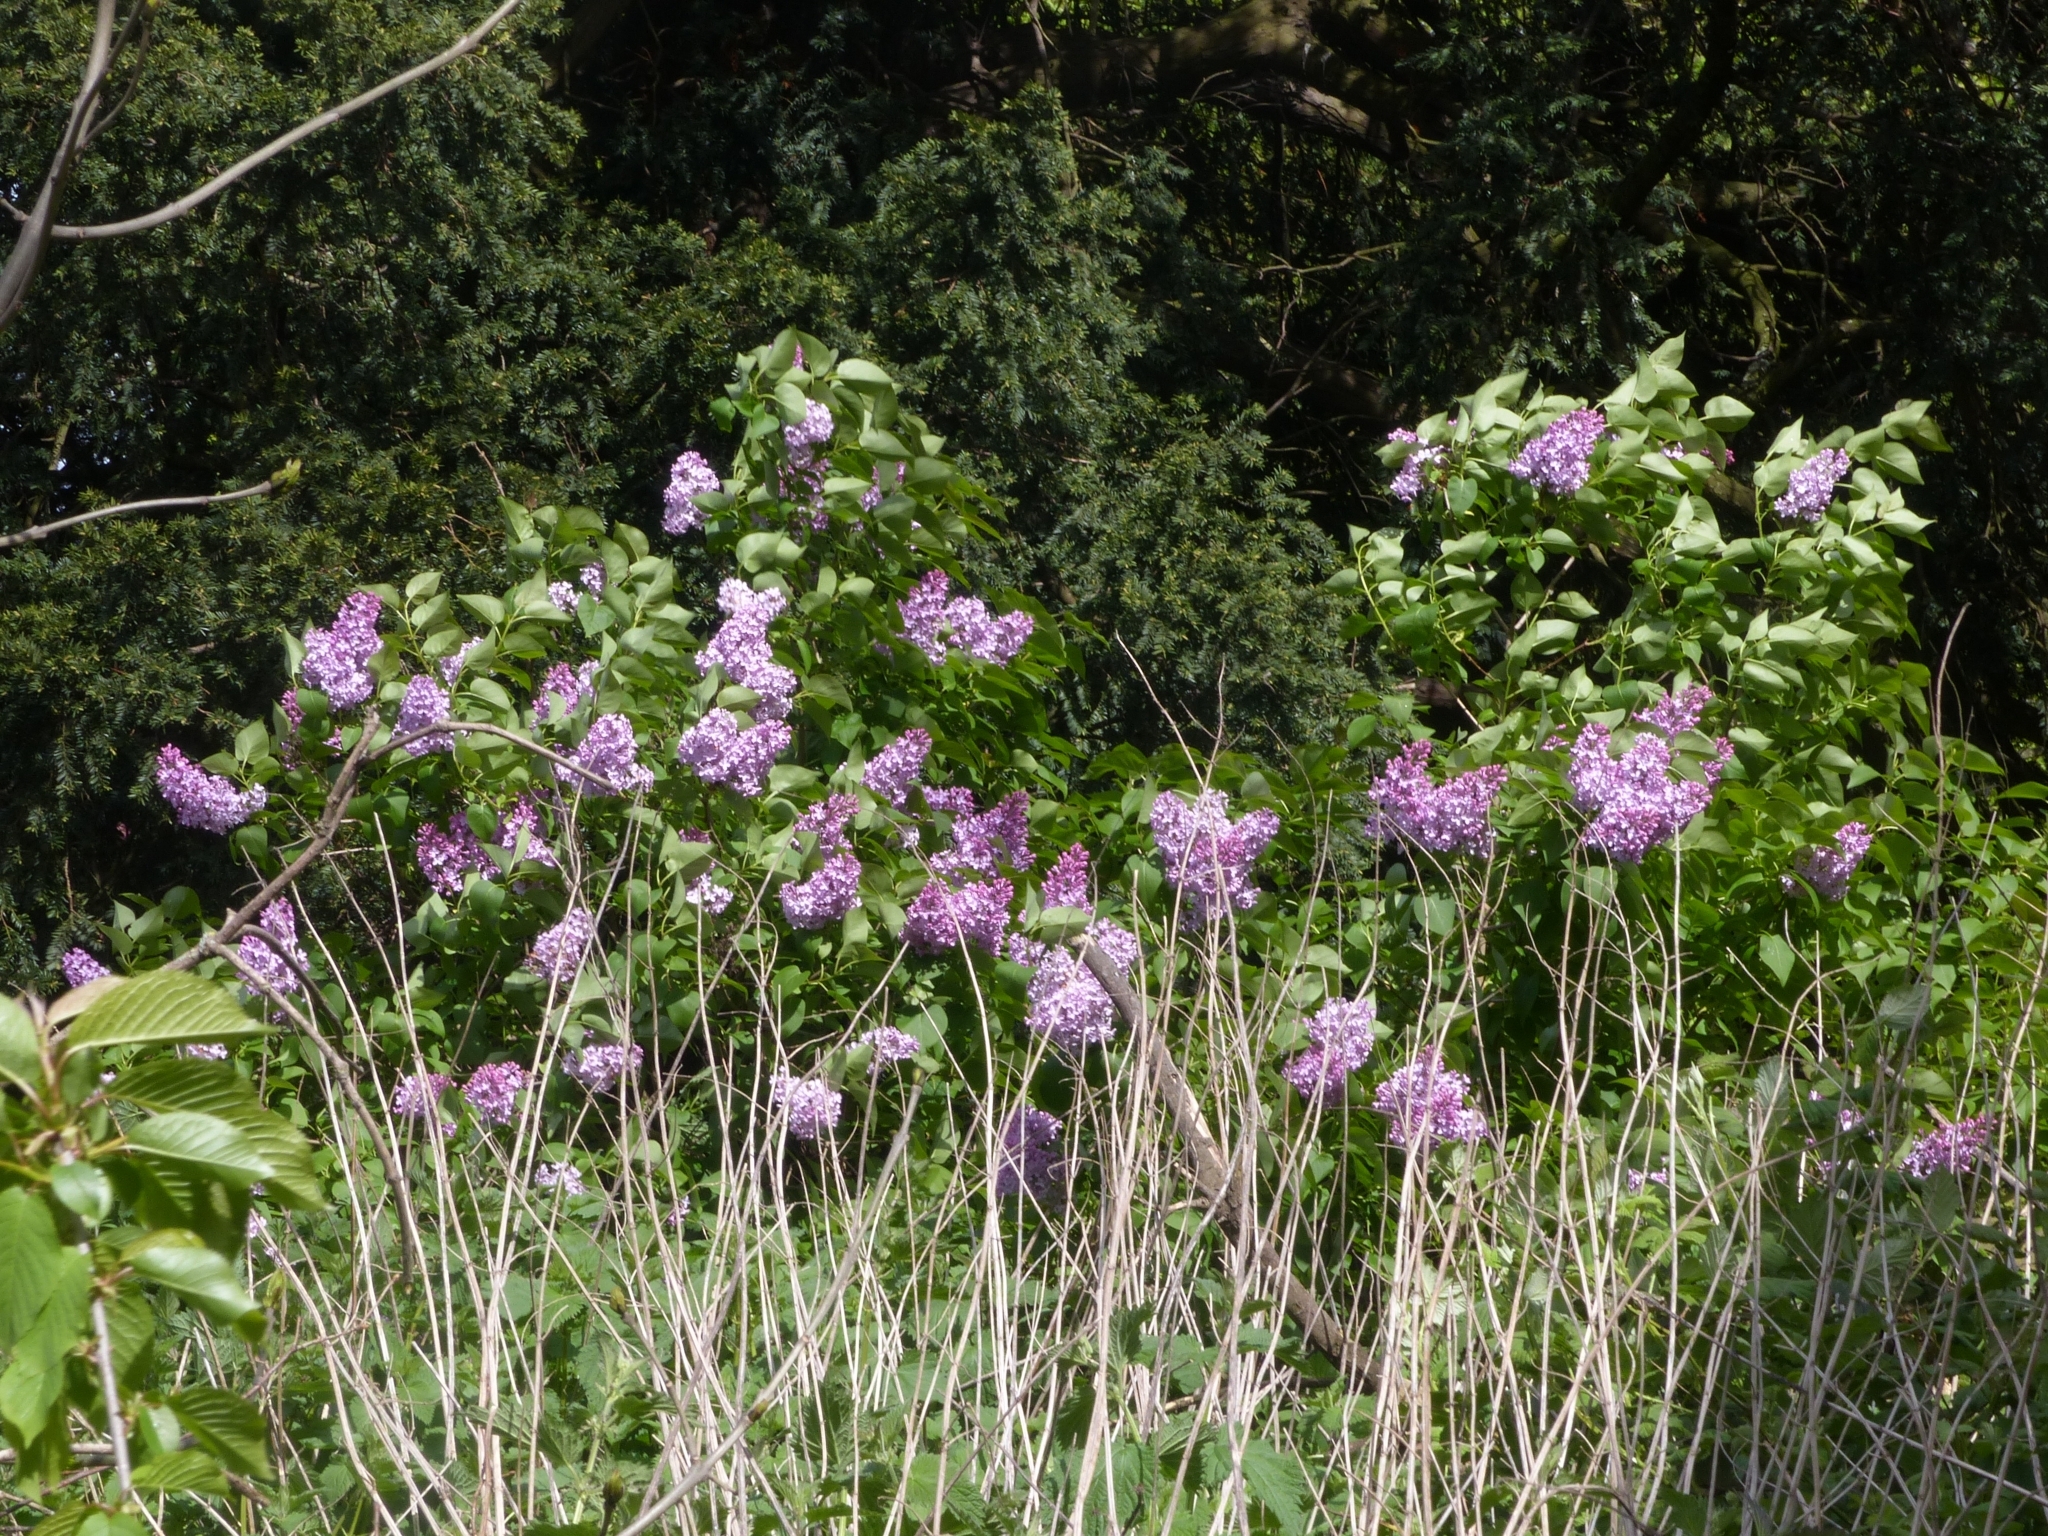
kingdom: Plantae
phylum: Tracheophyta
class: Magnoliopsida
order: Lamiales
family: Oleaceae
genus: Syringa
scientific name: Syringa vulgaris
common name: Common lilac
